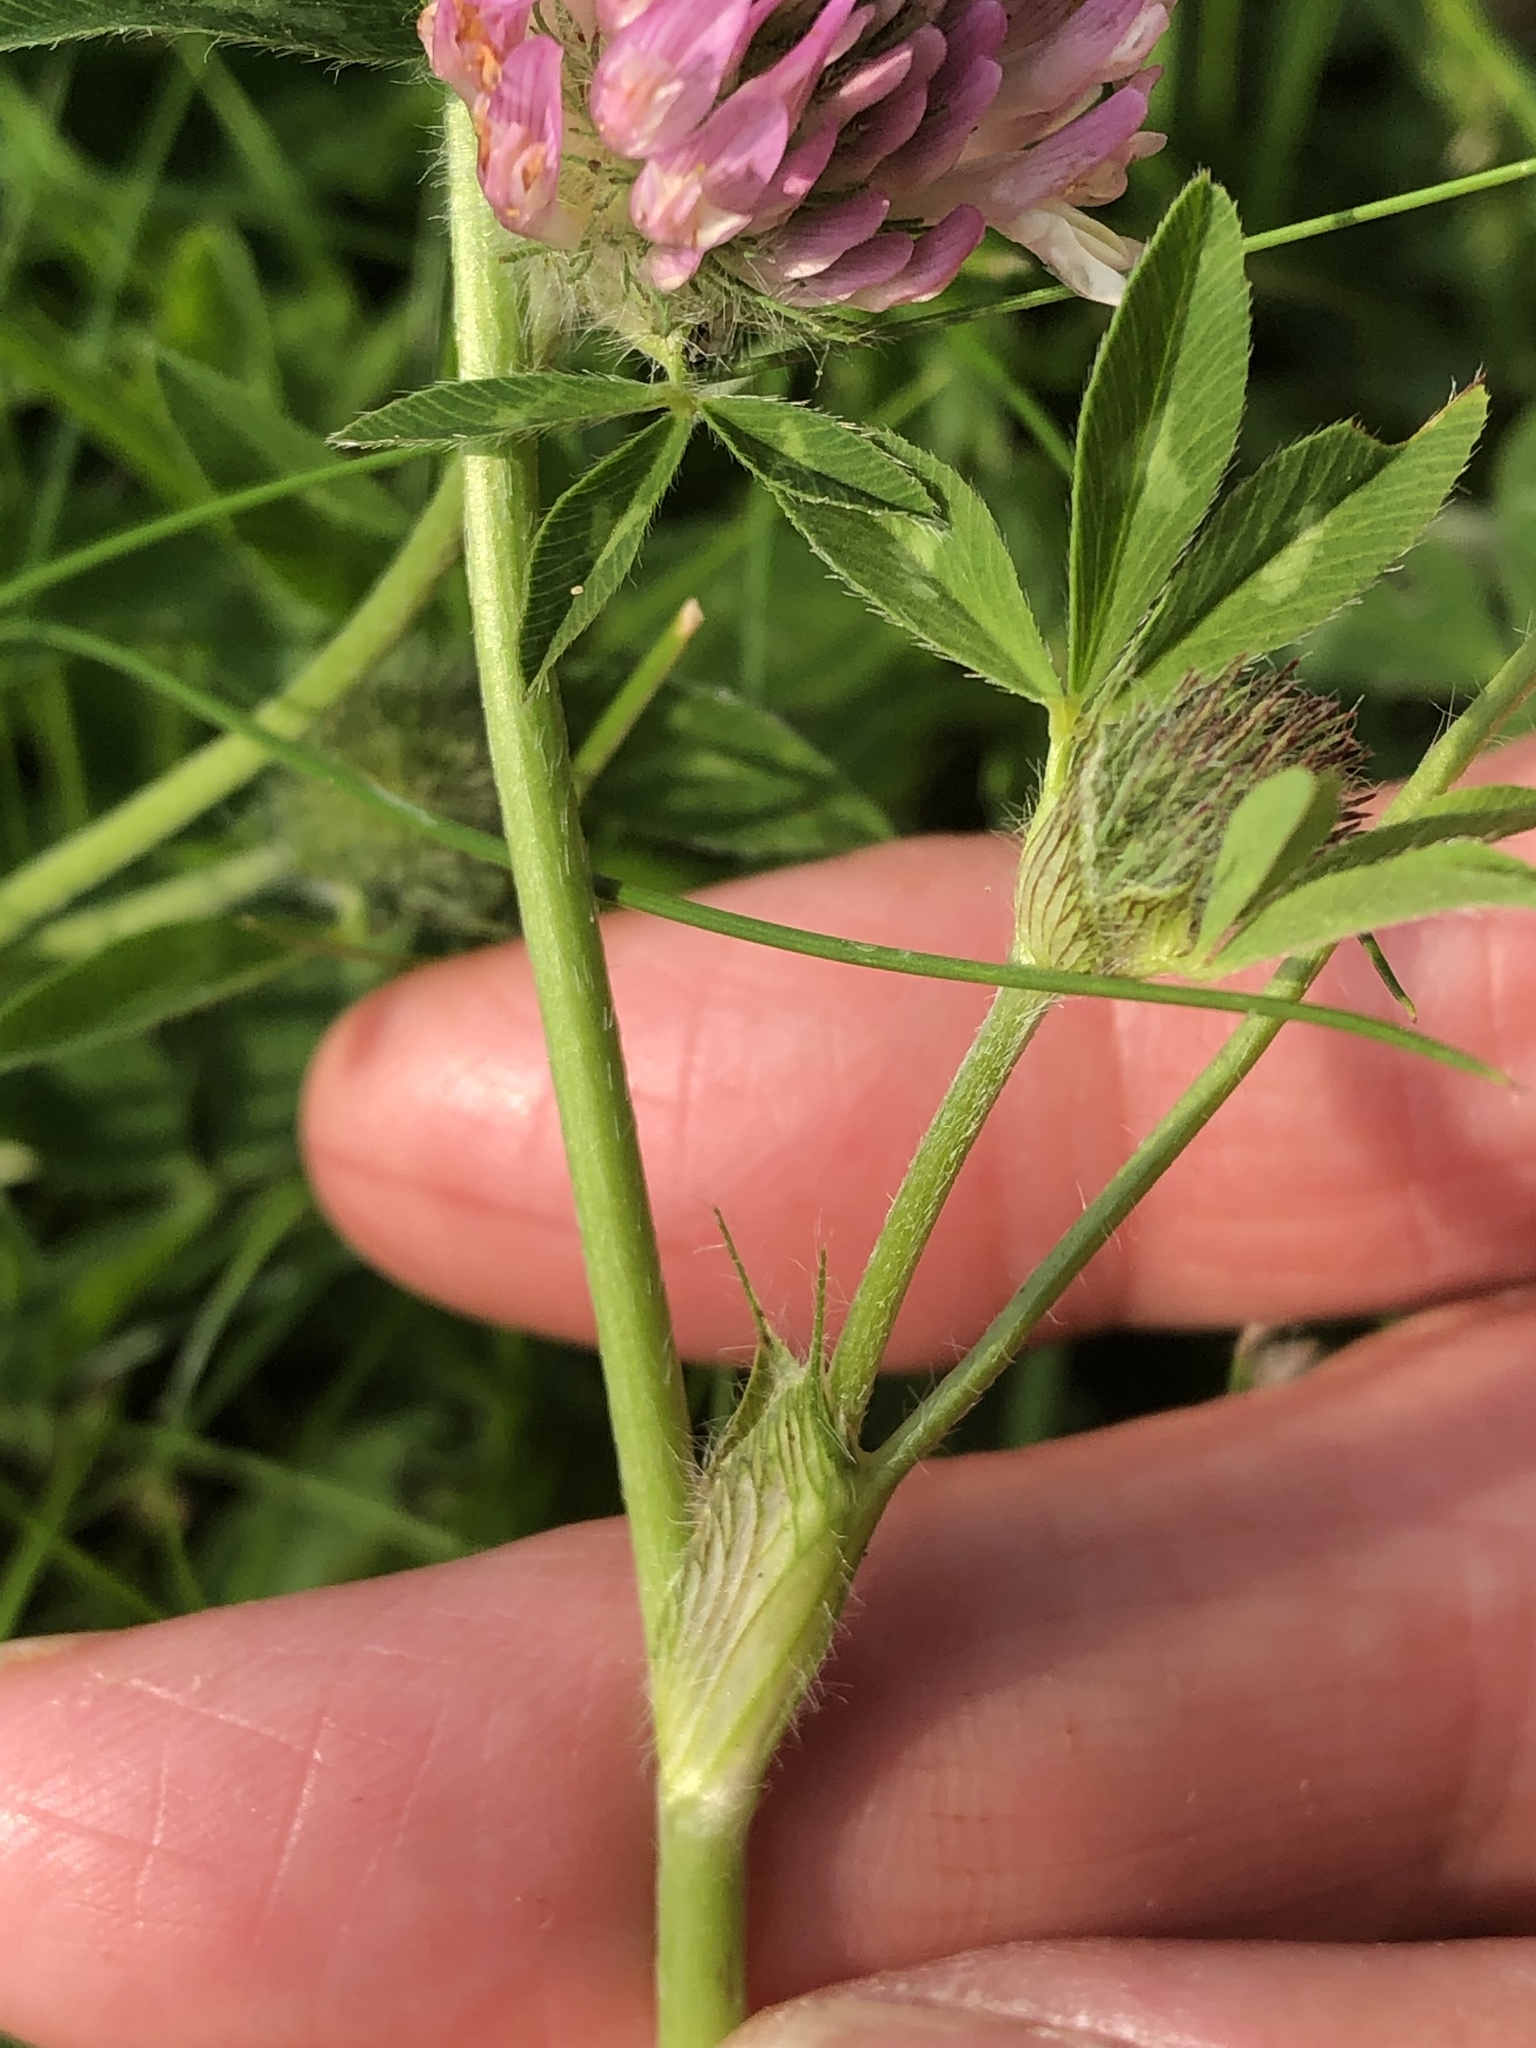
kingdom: Plantae
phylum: Tracheophyta
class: Magnoliopsida
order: Fabales
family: Fabaceae
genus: Trifolium
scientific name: Trifolium pratense
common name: Red clover
